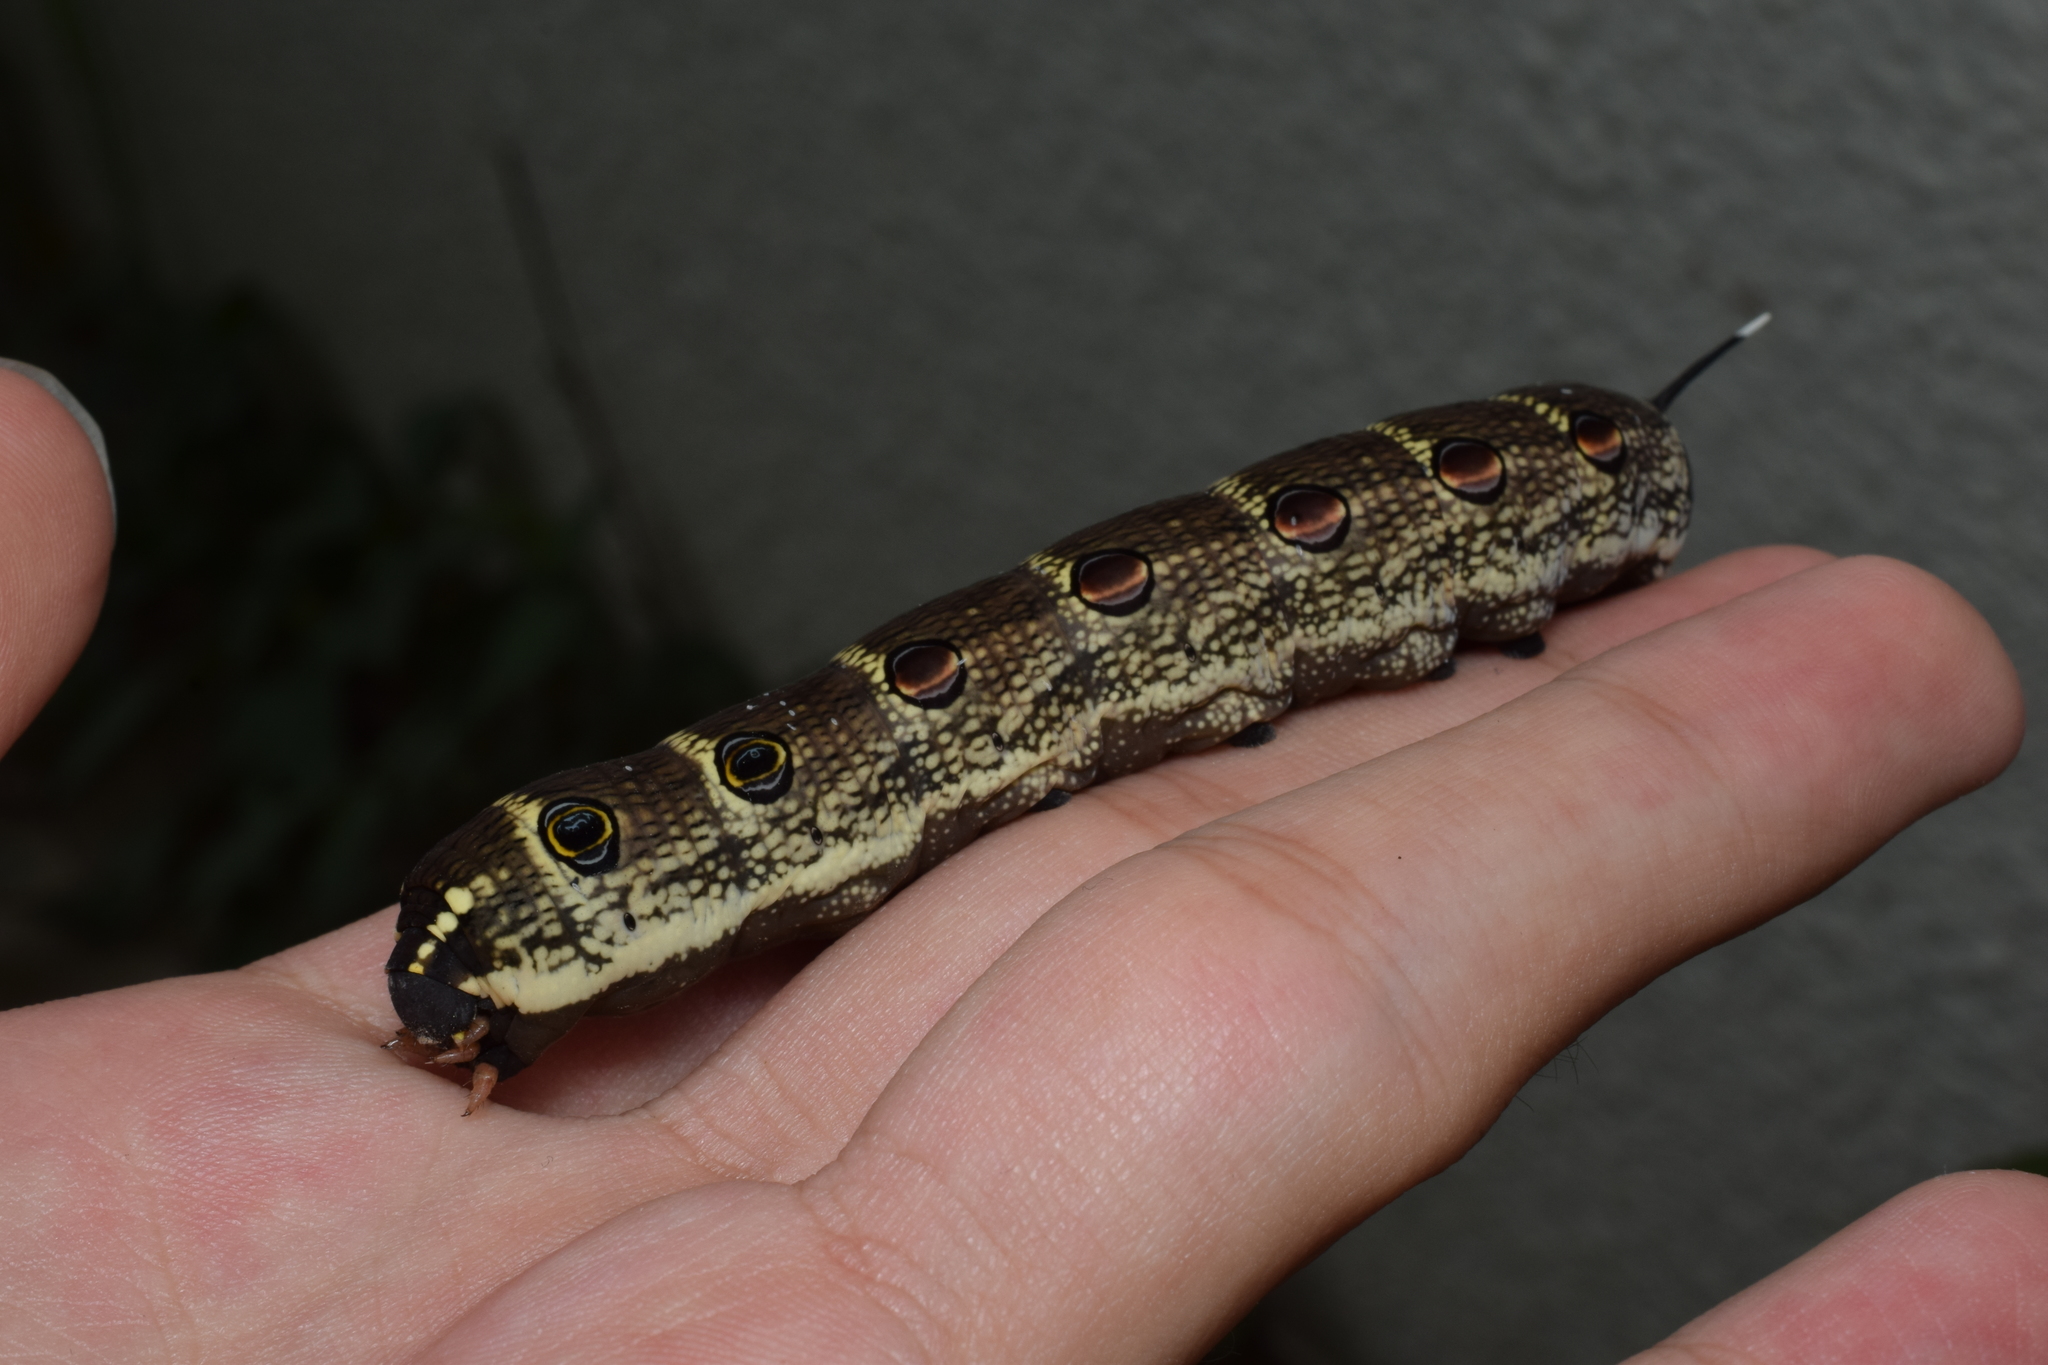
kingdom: Animalia
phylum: Arthropoda
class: Insecta
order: Lepidoptera
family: Sphingidae
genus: Theretra
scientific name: Theretra oldenlandiae
